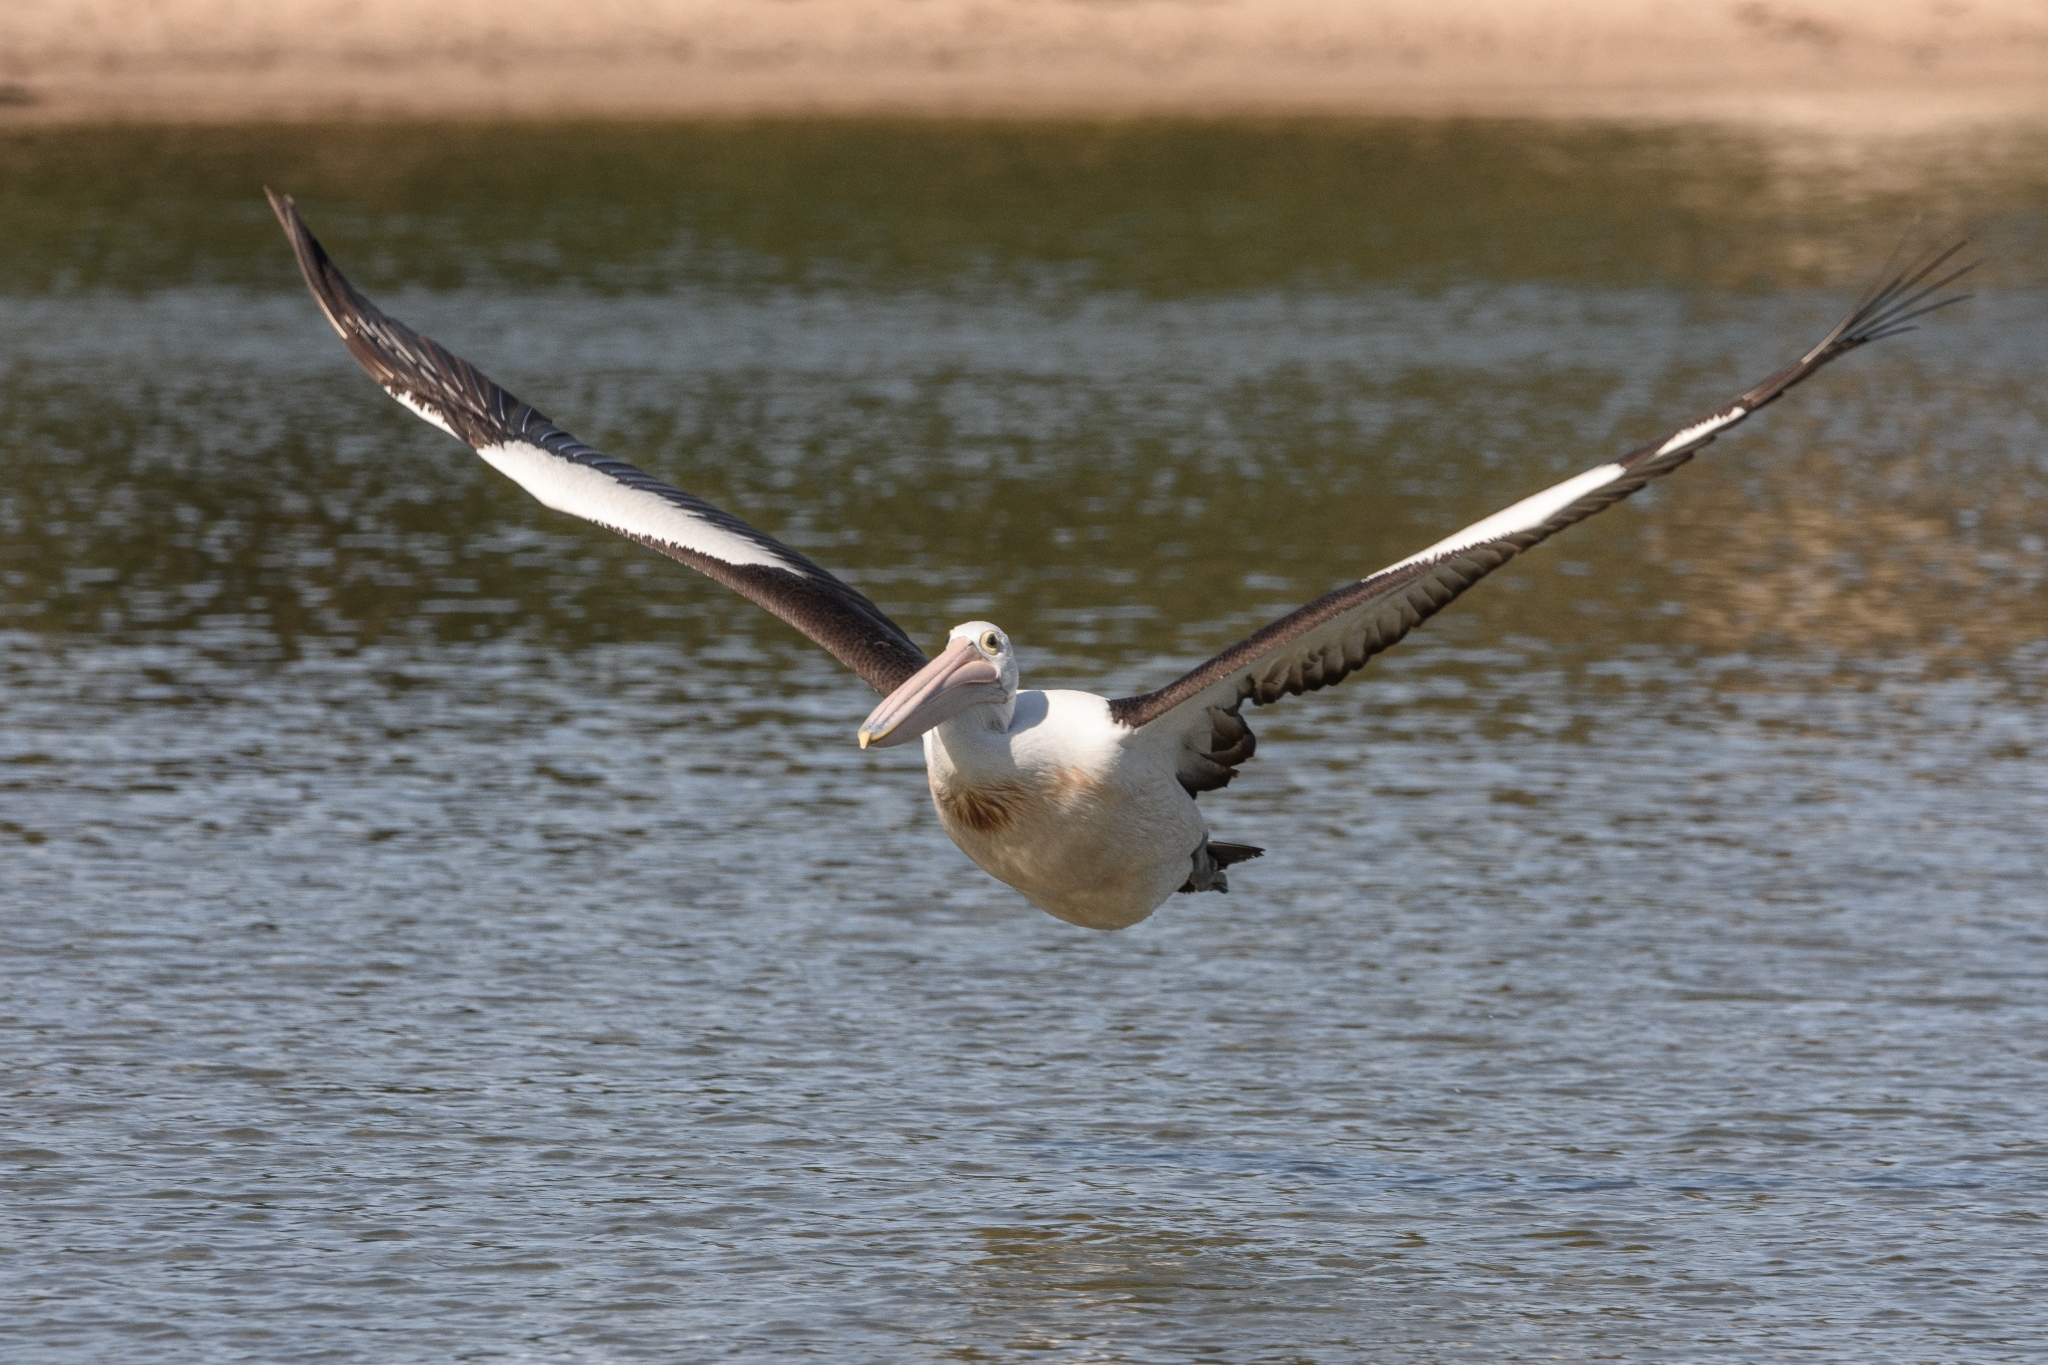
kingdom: Animalia
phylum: Chordata
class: Aves
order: Pelecaniformes
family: Pelecanidae
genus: Pelecanus
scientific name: Pelecanus conspicillatus
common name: Australian pelican
